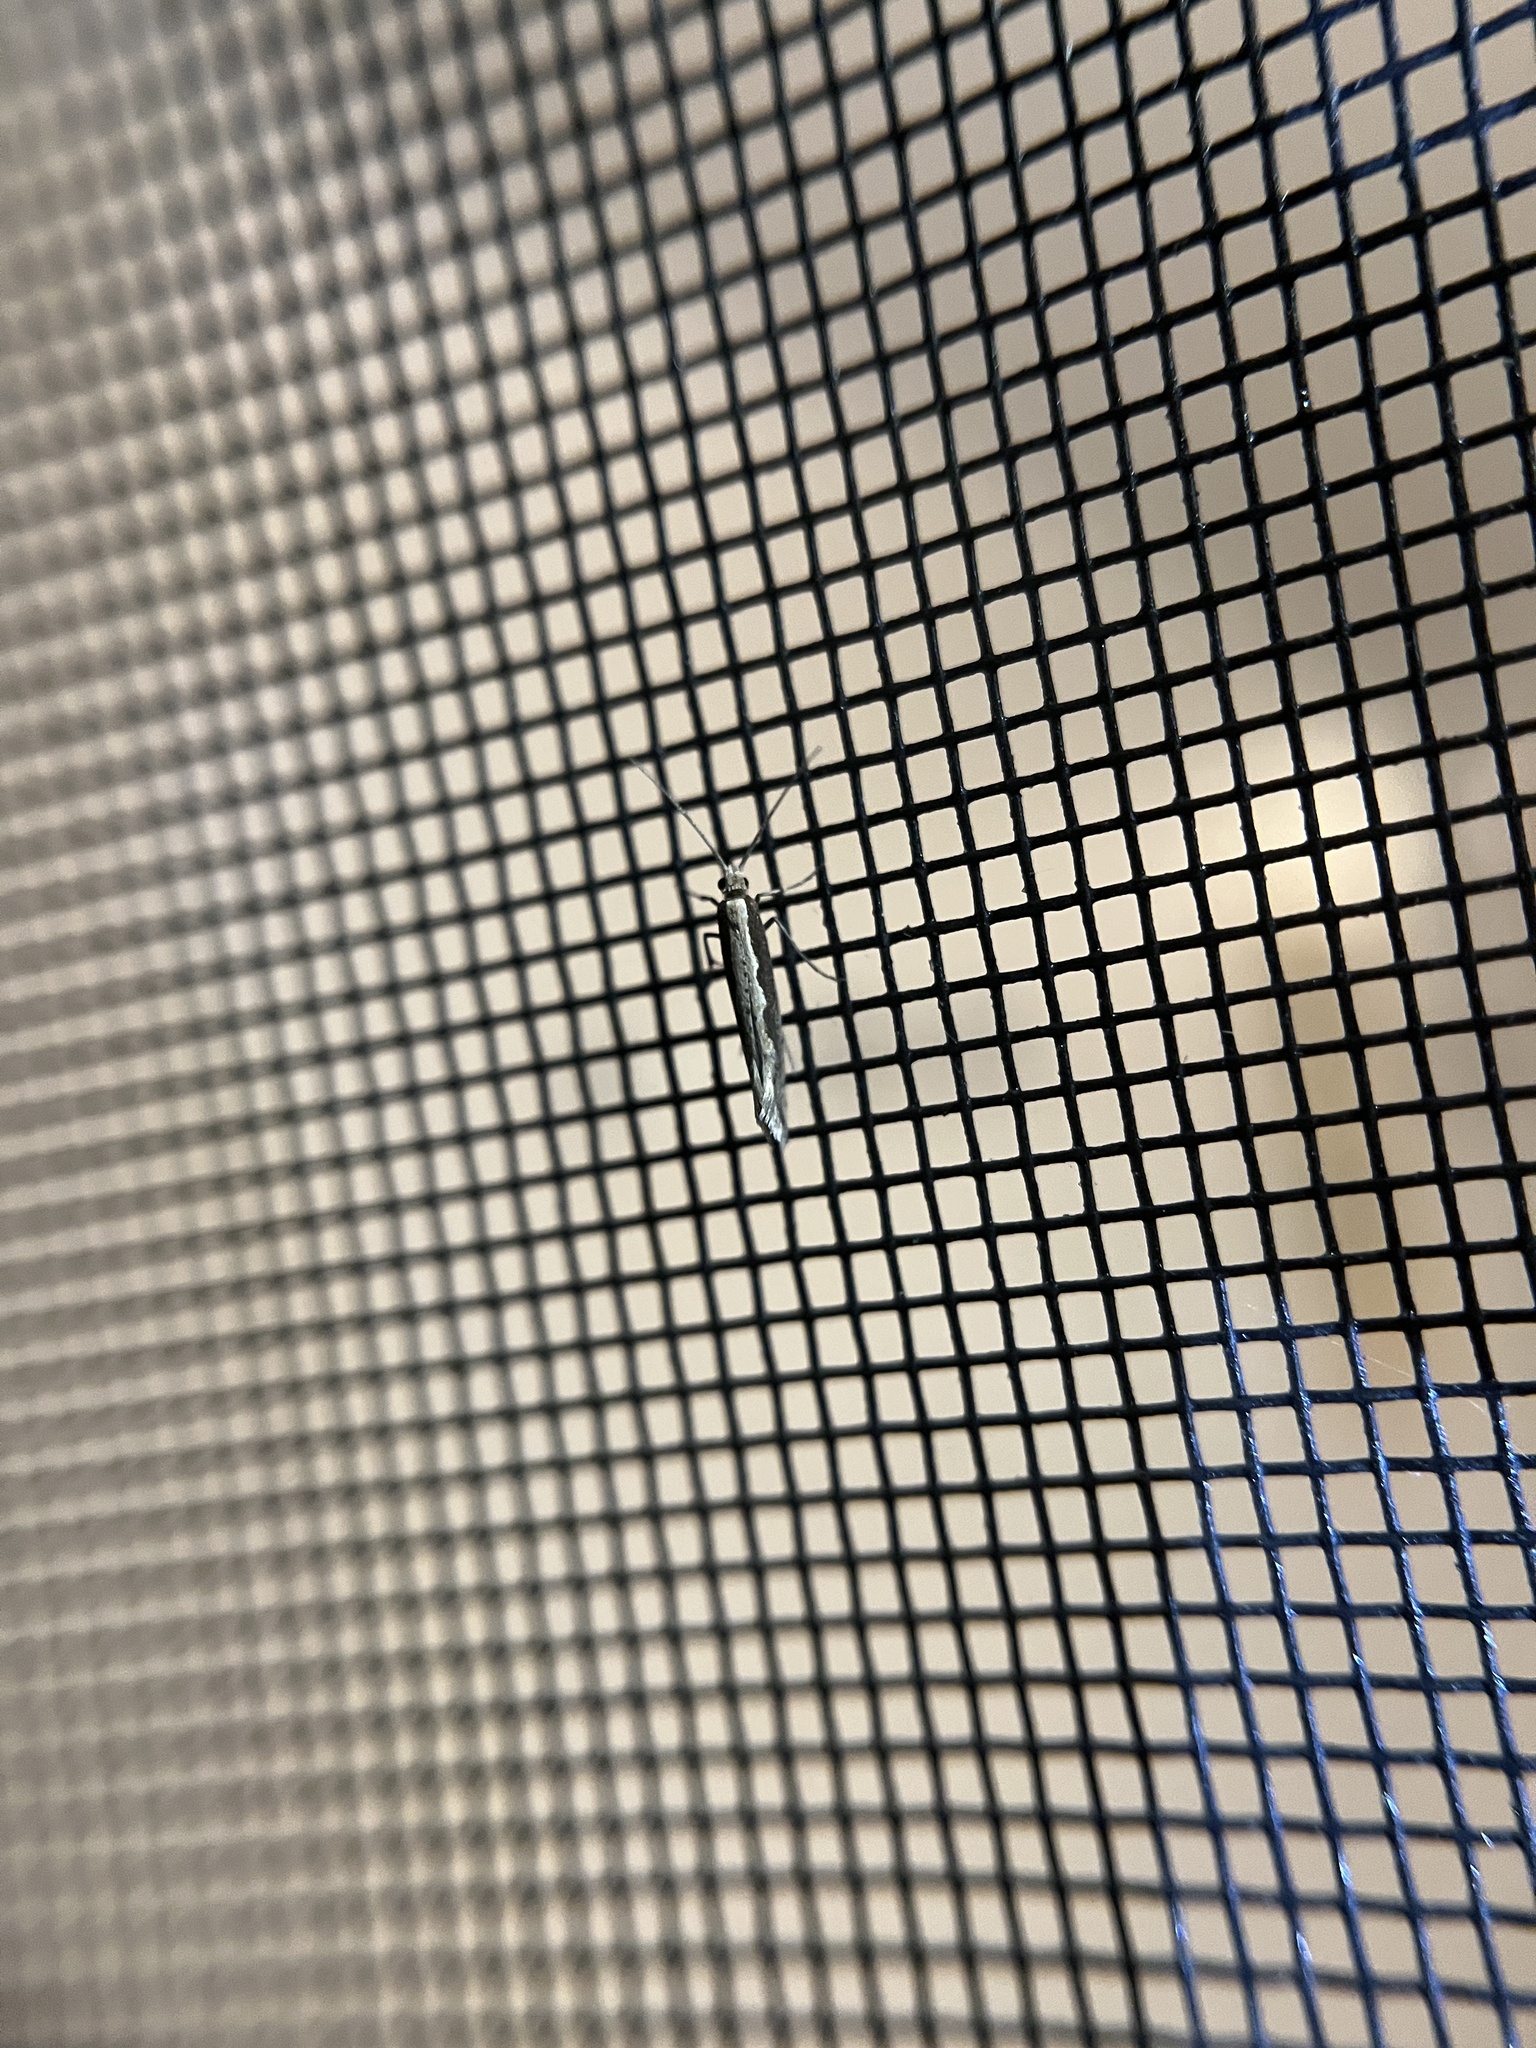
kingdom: Animalia
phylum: Arthropoda
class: Insecta
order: Lepidoptera
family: Plutellidae
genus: Plutella
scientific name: Plutella xylostella
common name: Diamond-back moth
